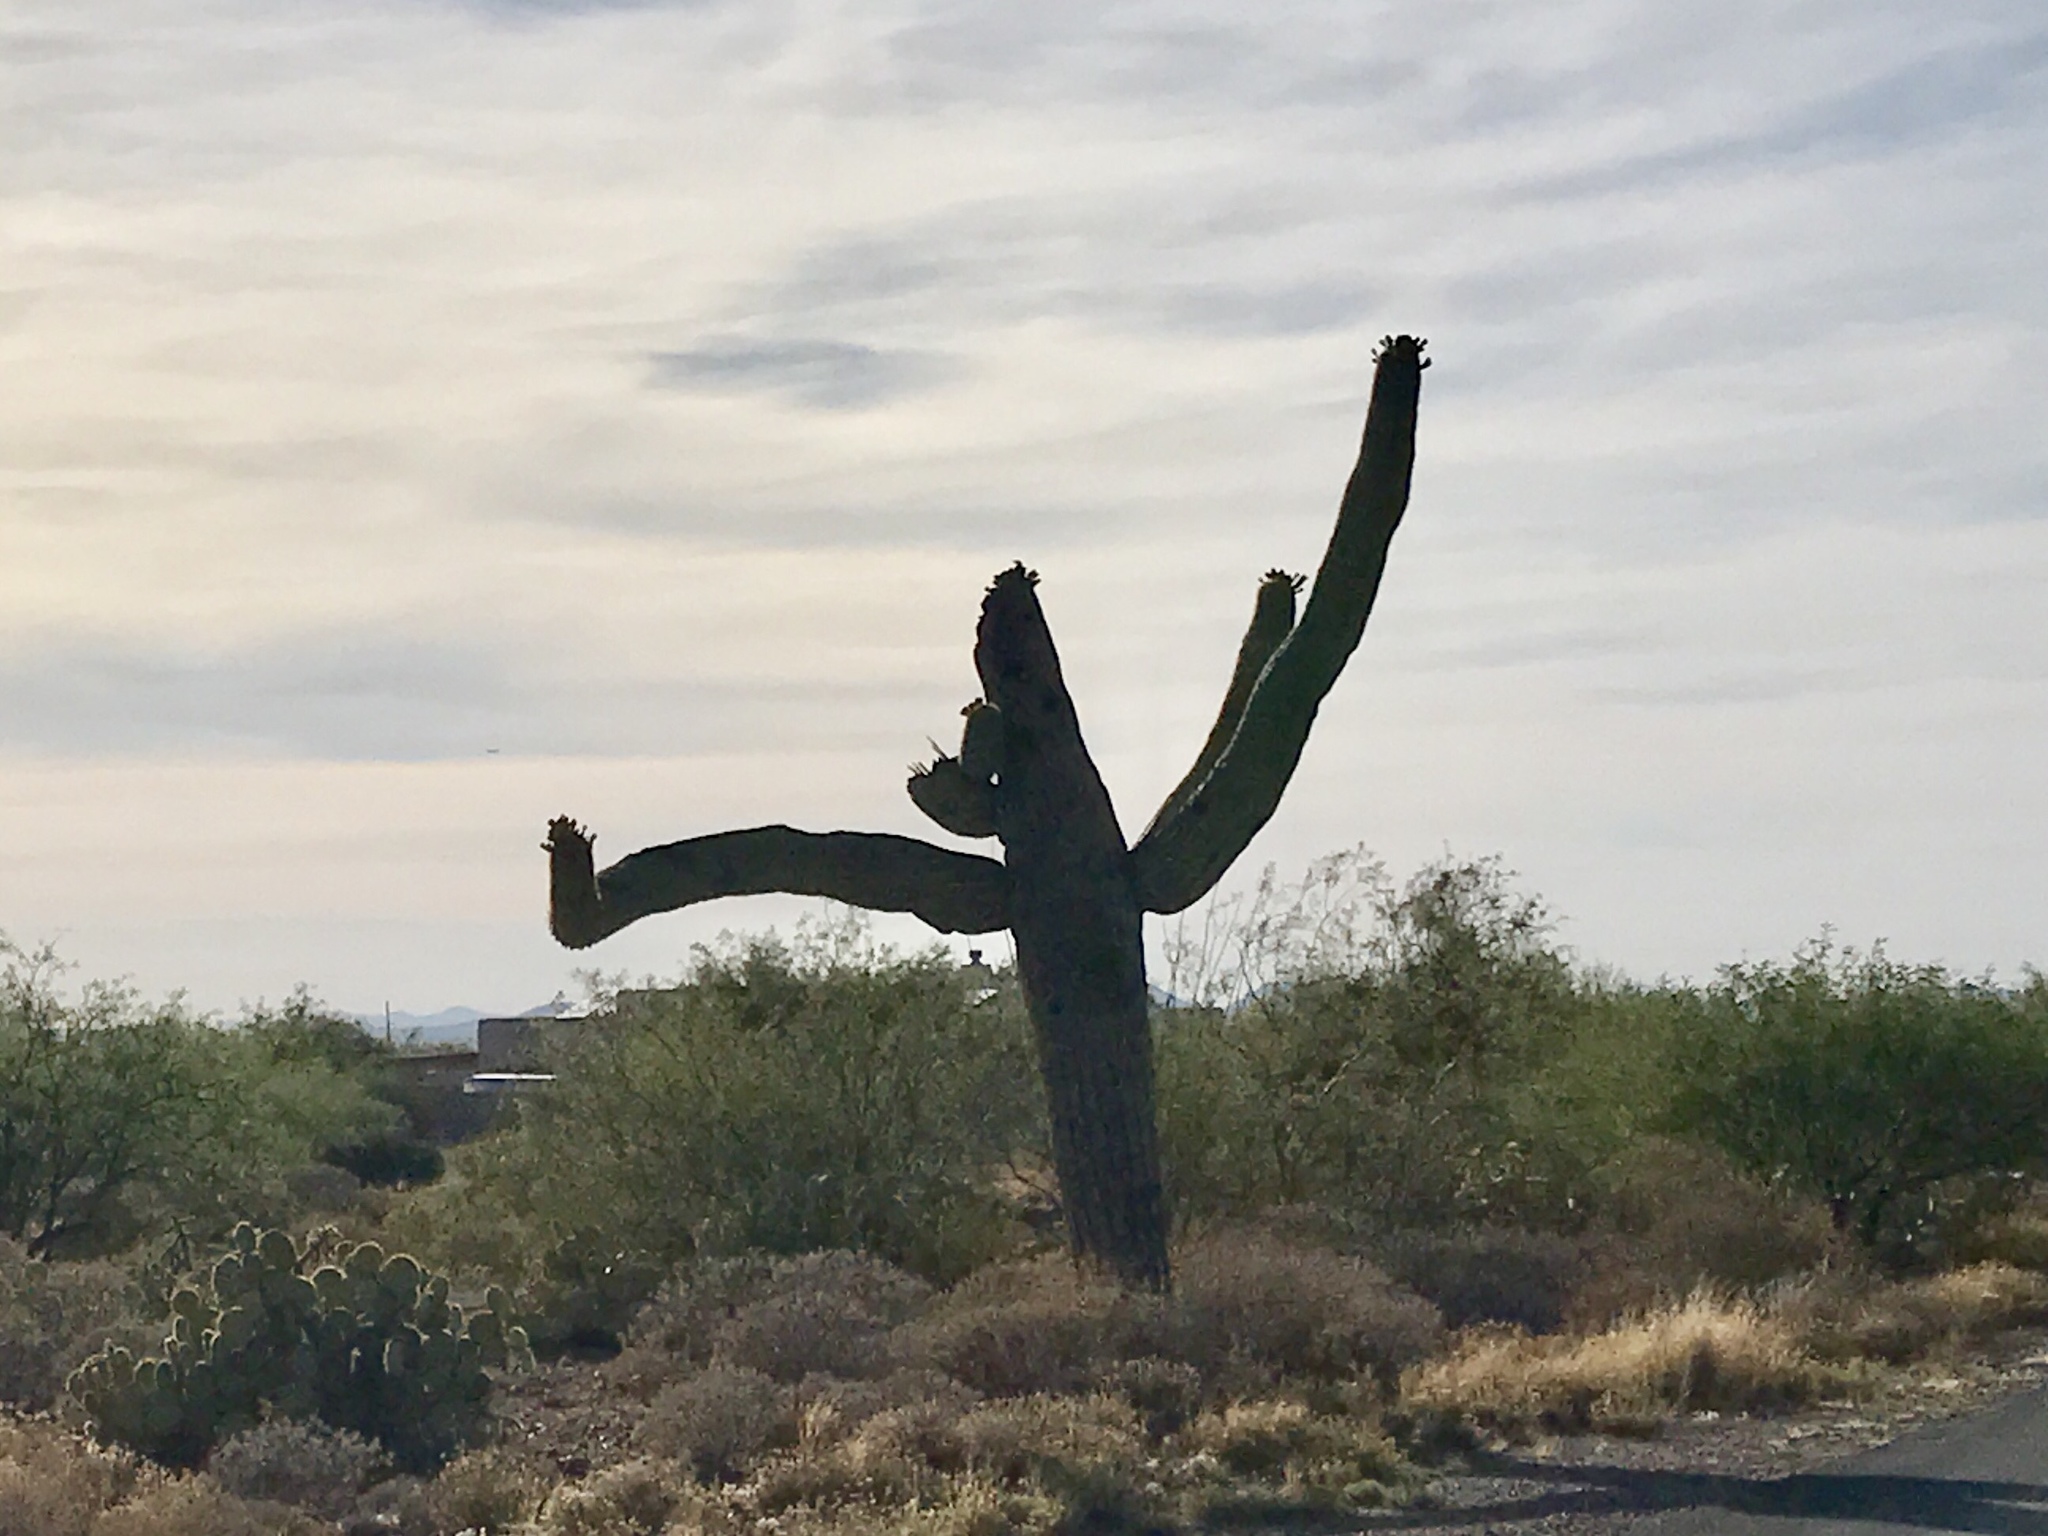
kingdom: Plantae
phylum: Tracheophyta
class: Magnoliopsida
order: Caryophyllales
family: Cactaceae
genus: Carnegiea
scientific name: Carnegiea gigantea
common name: Saguaro
